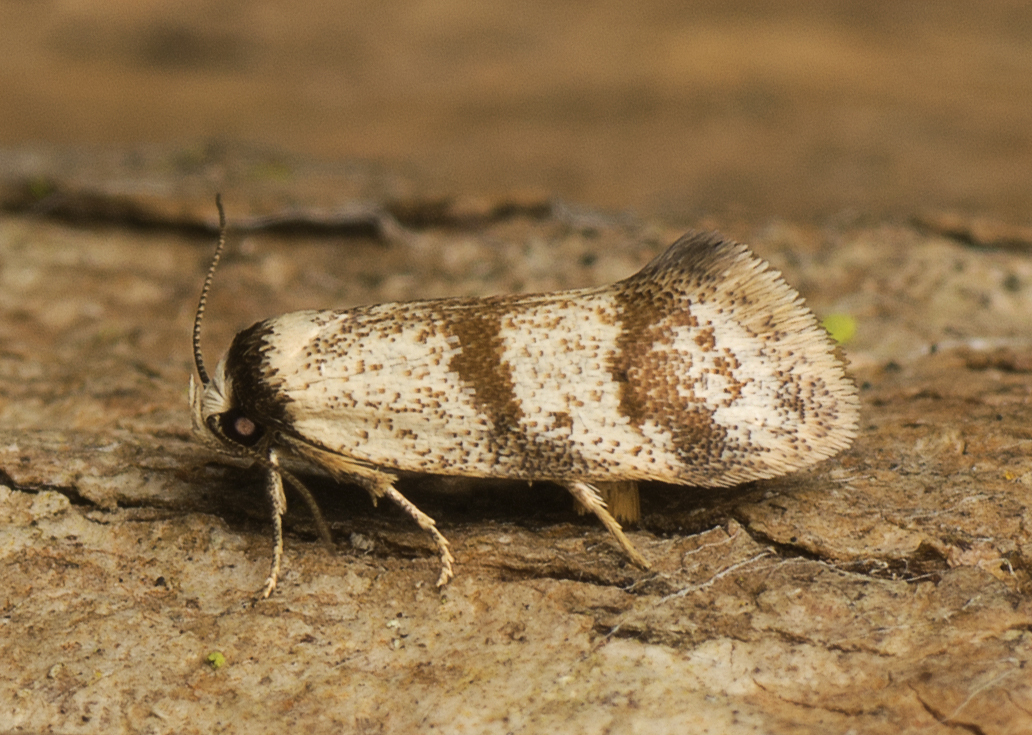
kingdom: Animalia
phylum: Arthropoda
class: Insecta
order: Lepidoptera
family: Oecophoridae
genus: Philobota
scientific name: Philobota curvilinea
